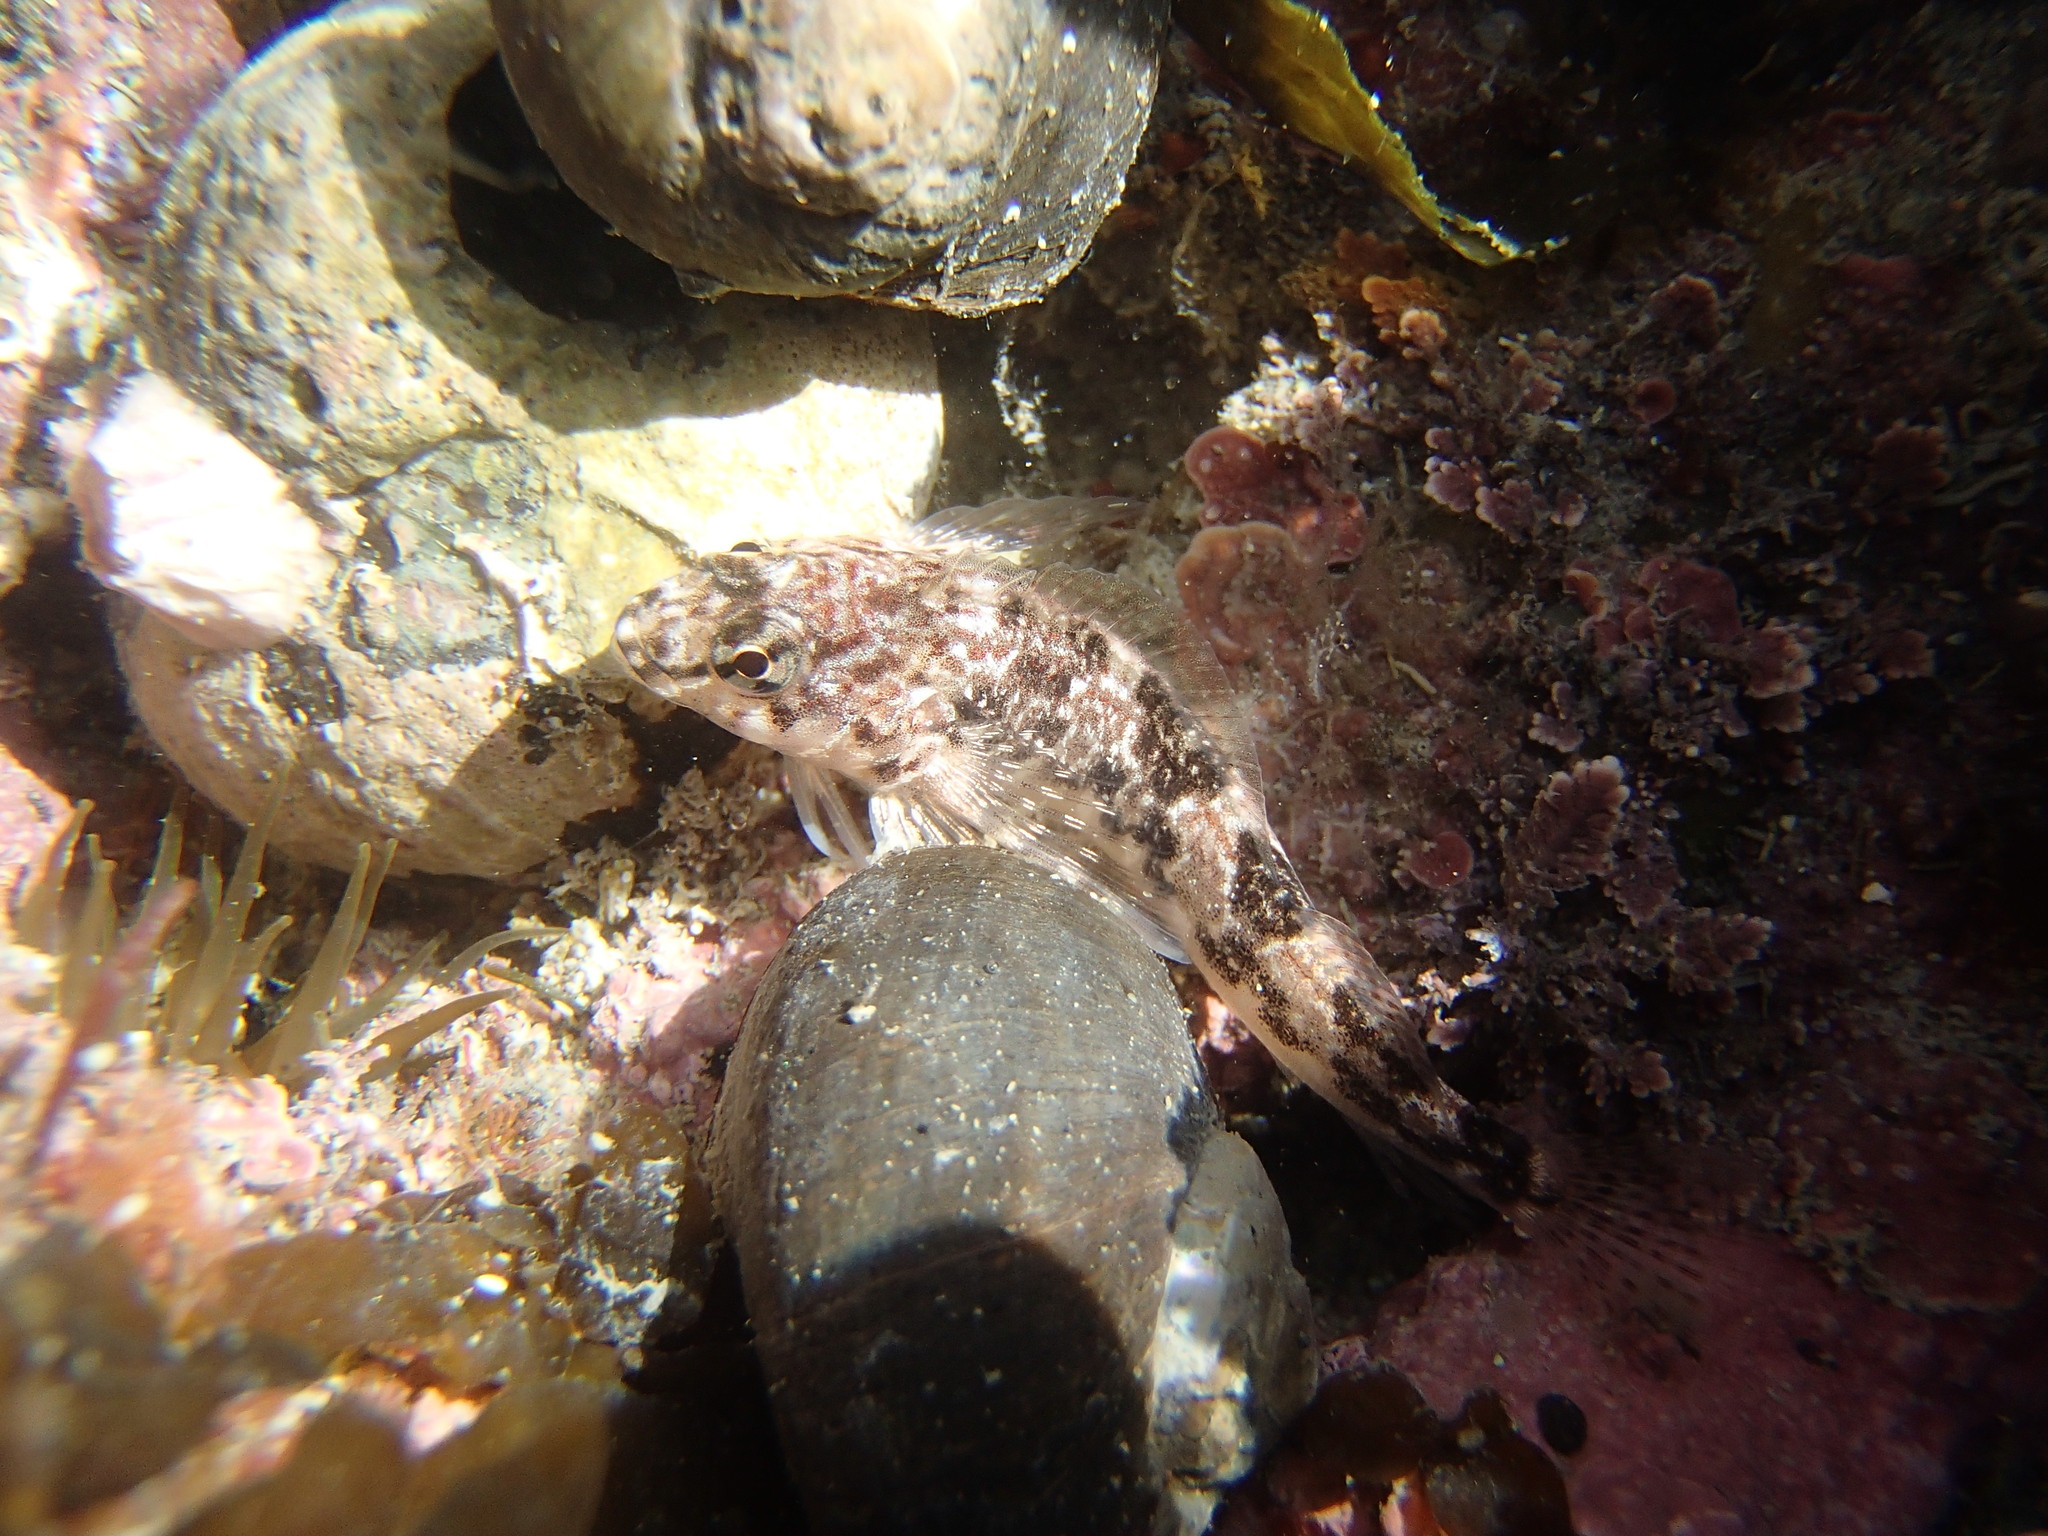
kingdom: Animalia
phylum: Chordata
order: Perciformes
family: Tripterygiidae
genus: Bellapiscis
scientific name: Bellapiscis medius
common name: Twister
